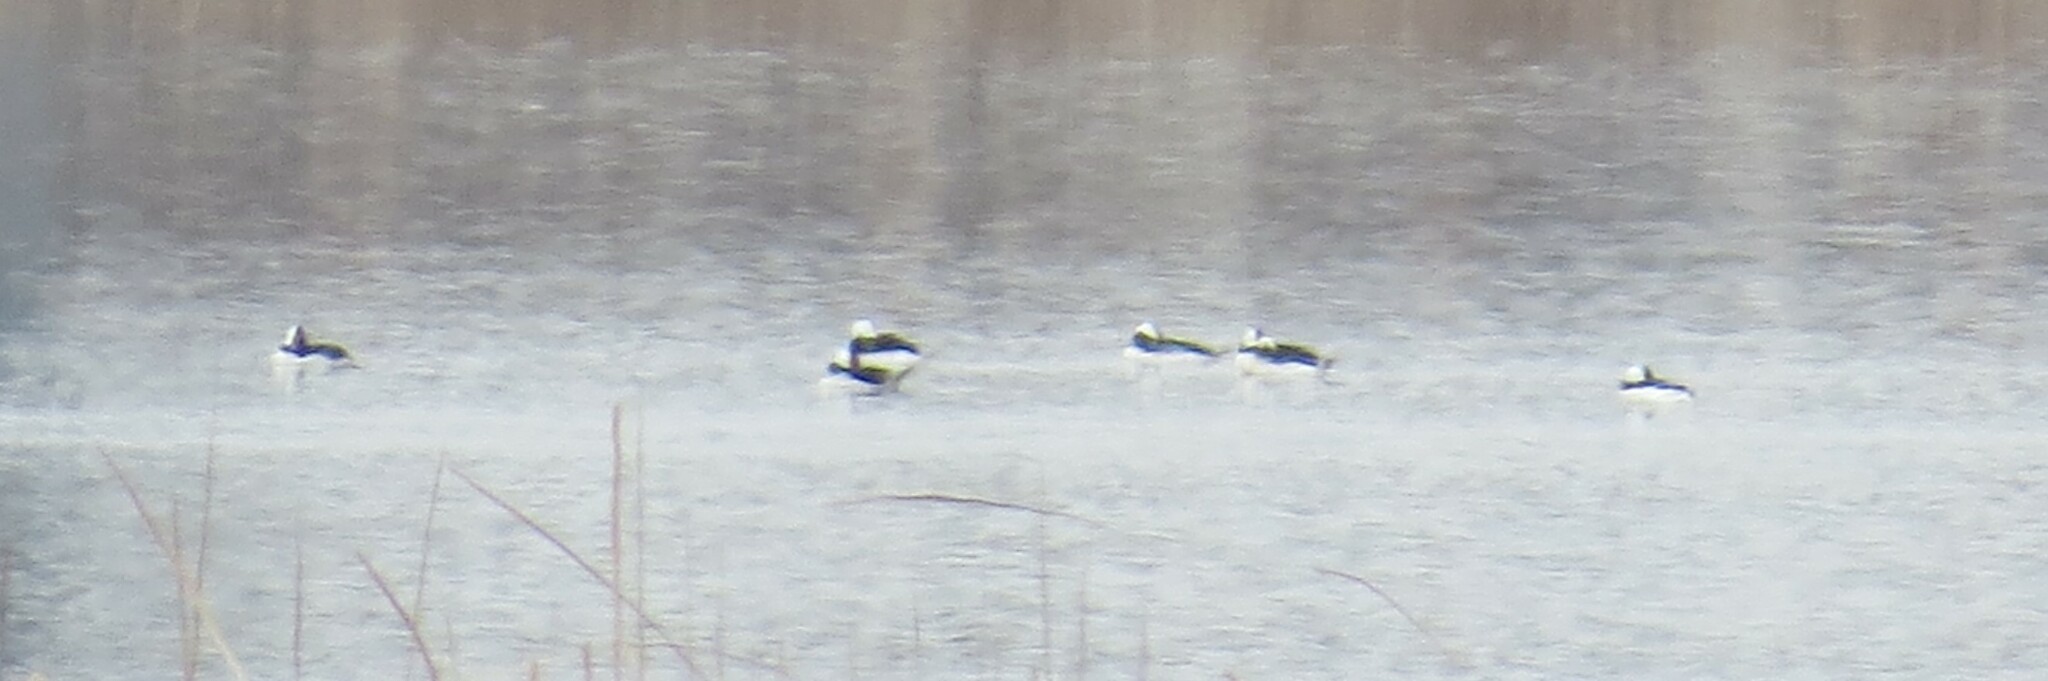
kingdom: Animalia
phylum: Chordata
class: Aves
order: Anseriformes
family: Anatidae
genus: Bucephala
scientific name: Bucephala albeola
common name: Bufflehead
